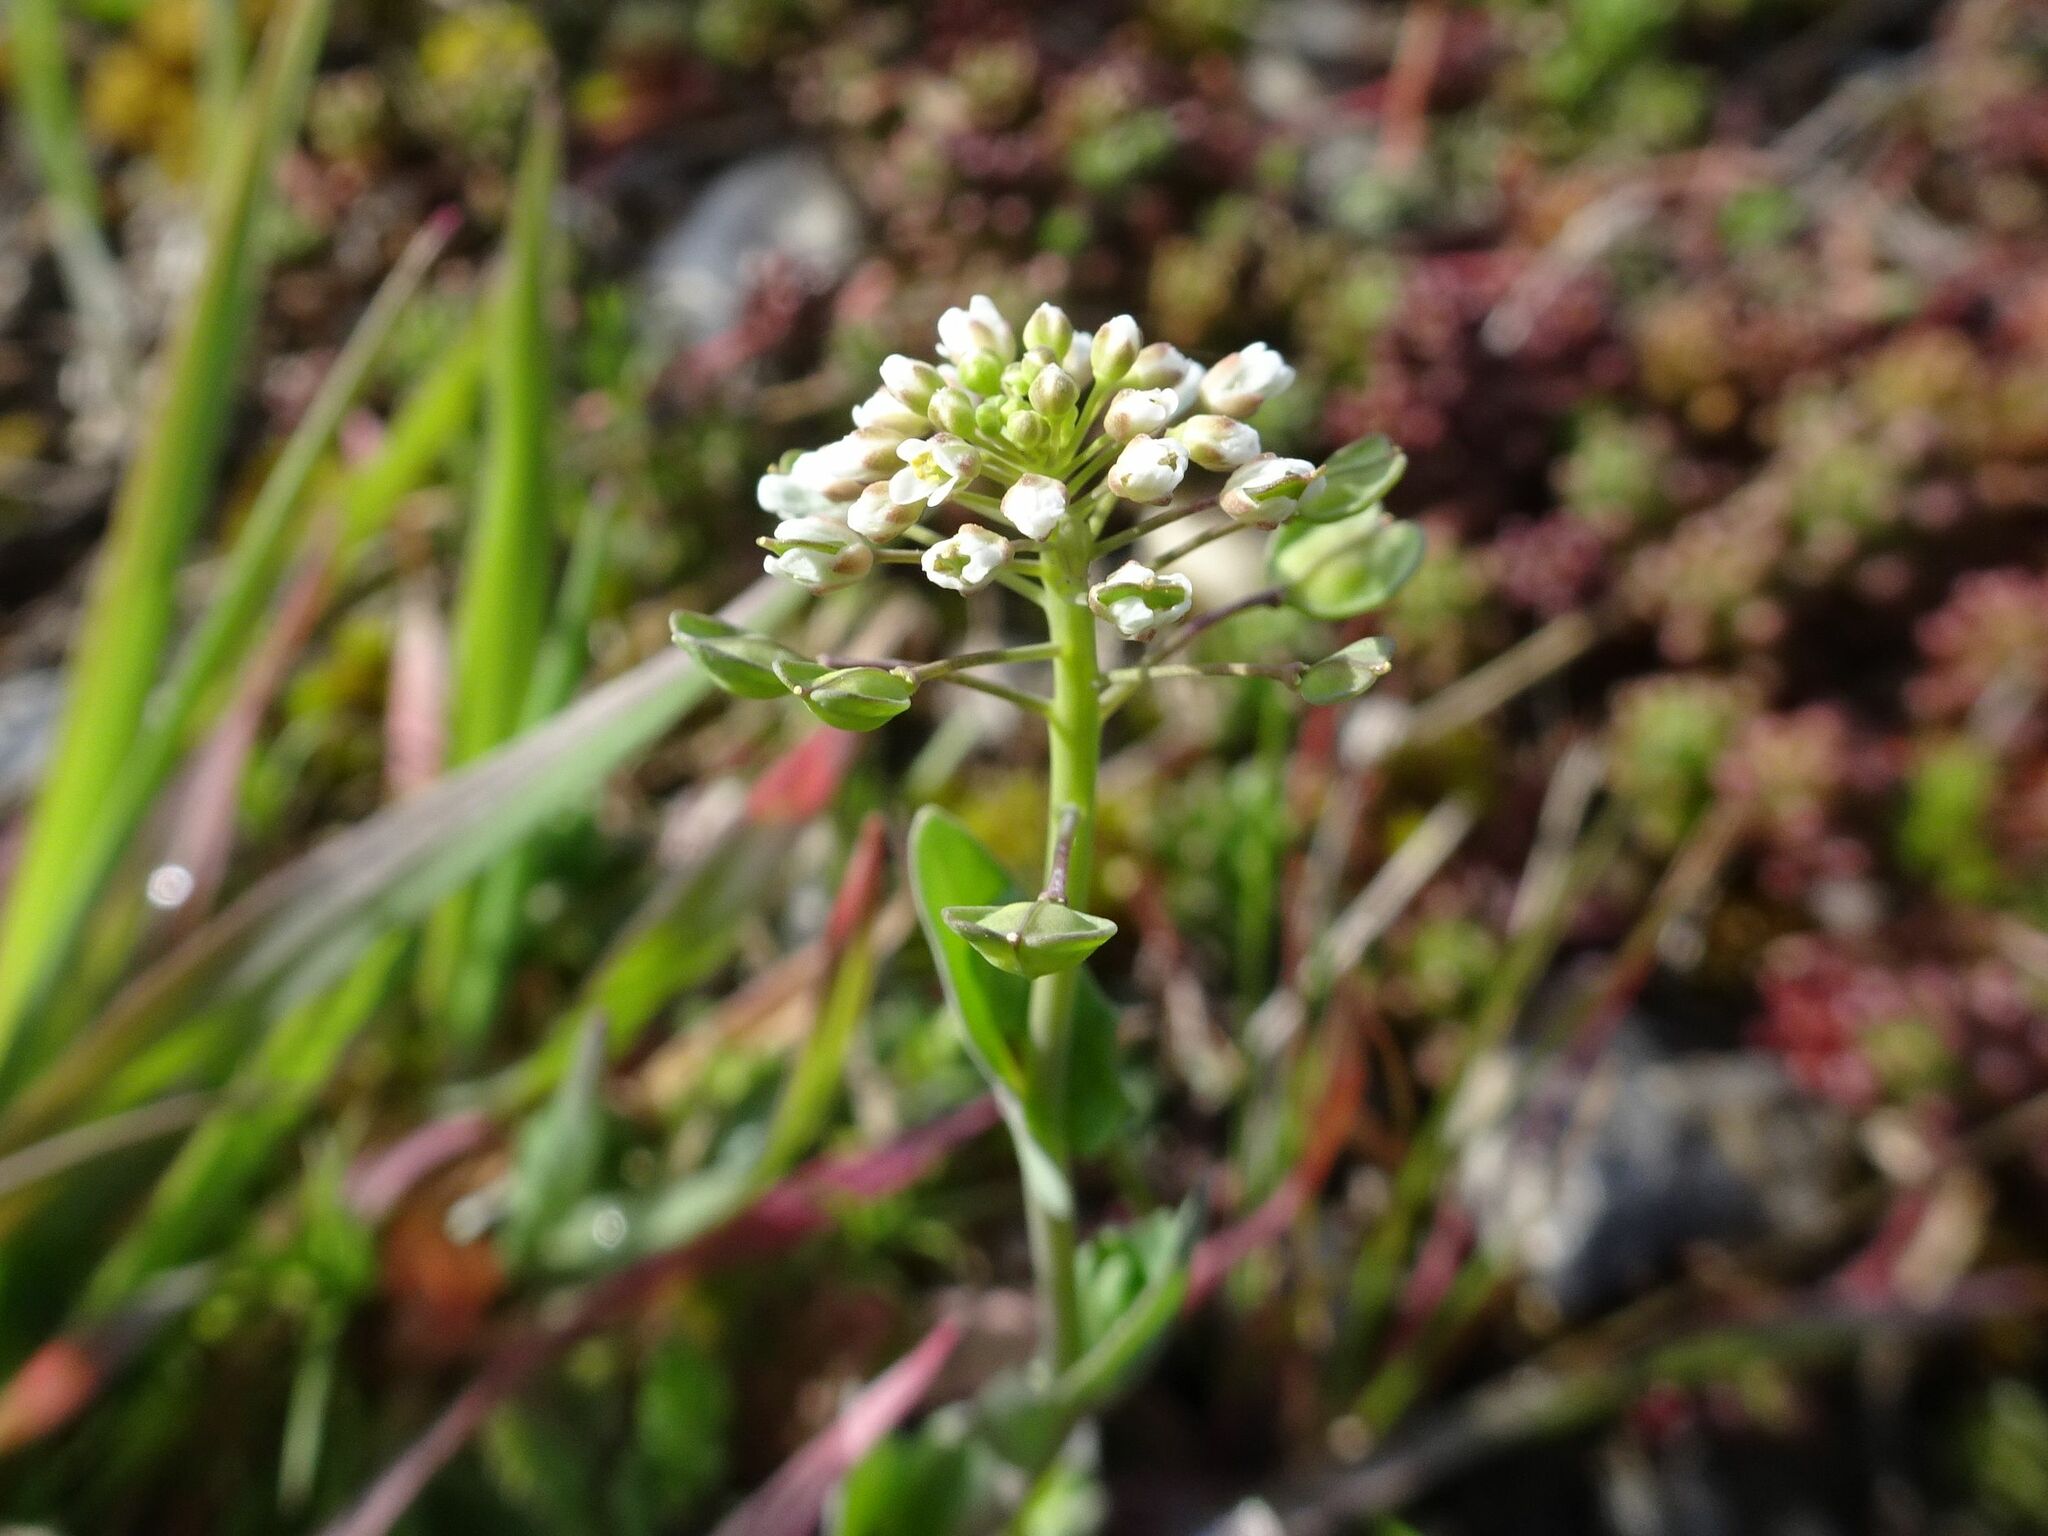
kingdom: Plantae
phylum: Tracheophyta
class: Magnoliopsida
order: Brassicales
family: Brassicaceae
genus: Noccaea
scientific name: Noccaea perfoliata
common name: Perfoliate pennycress
